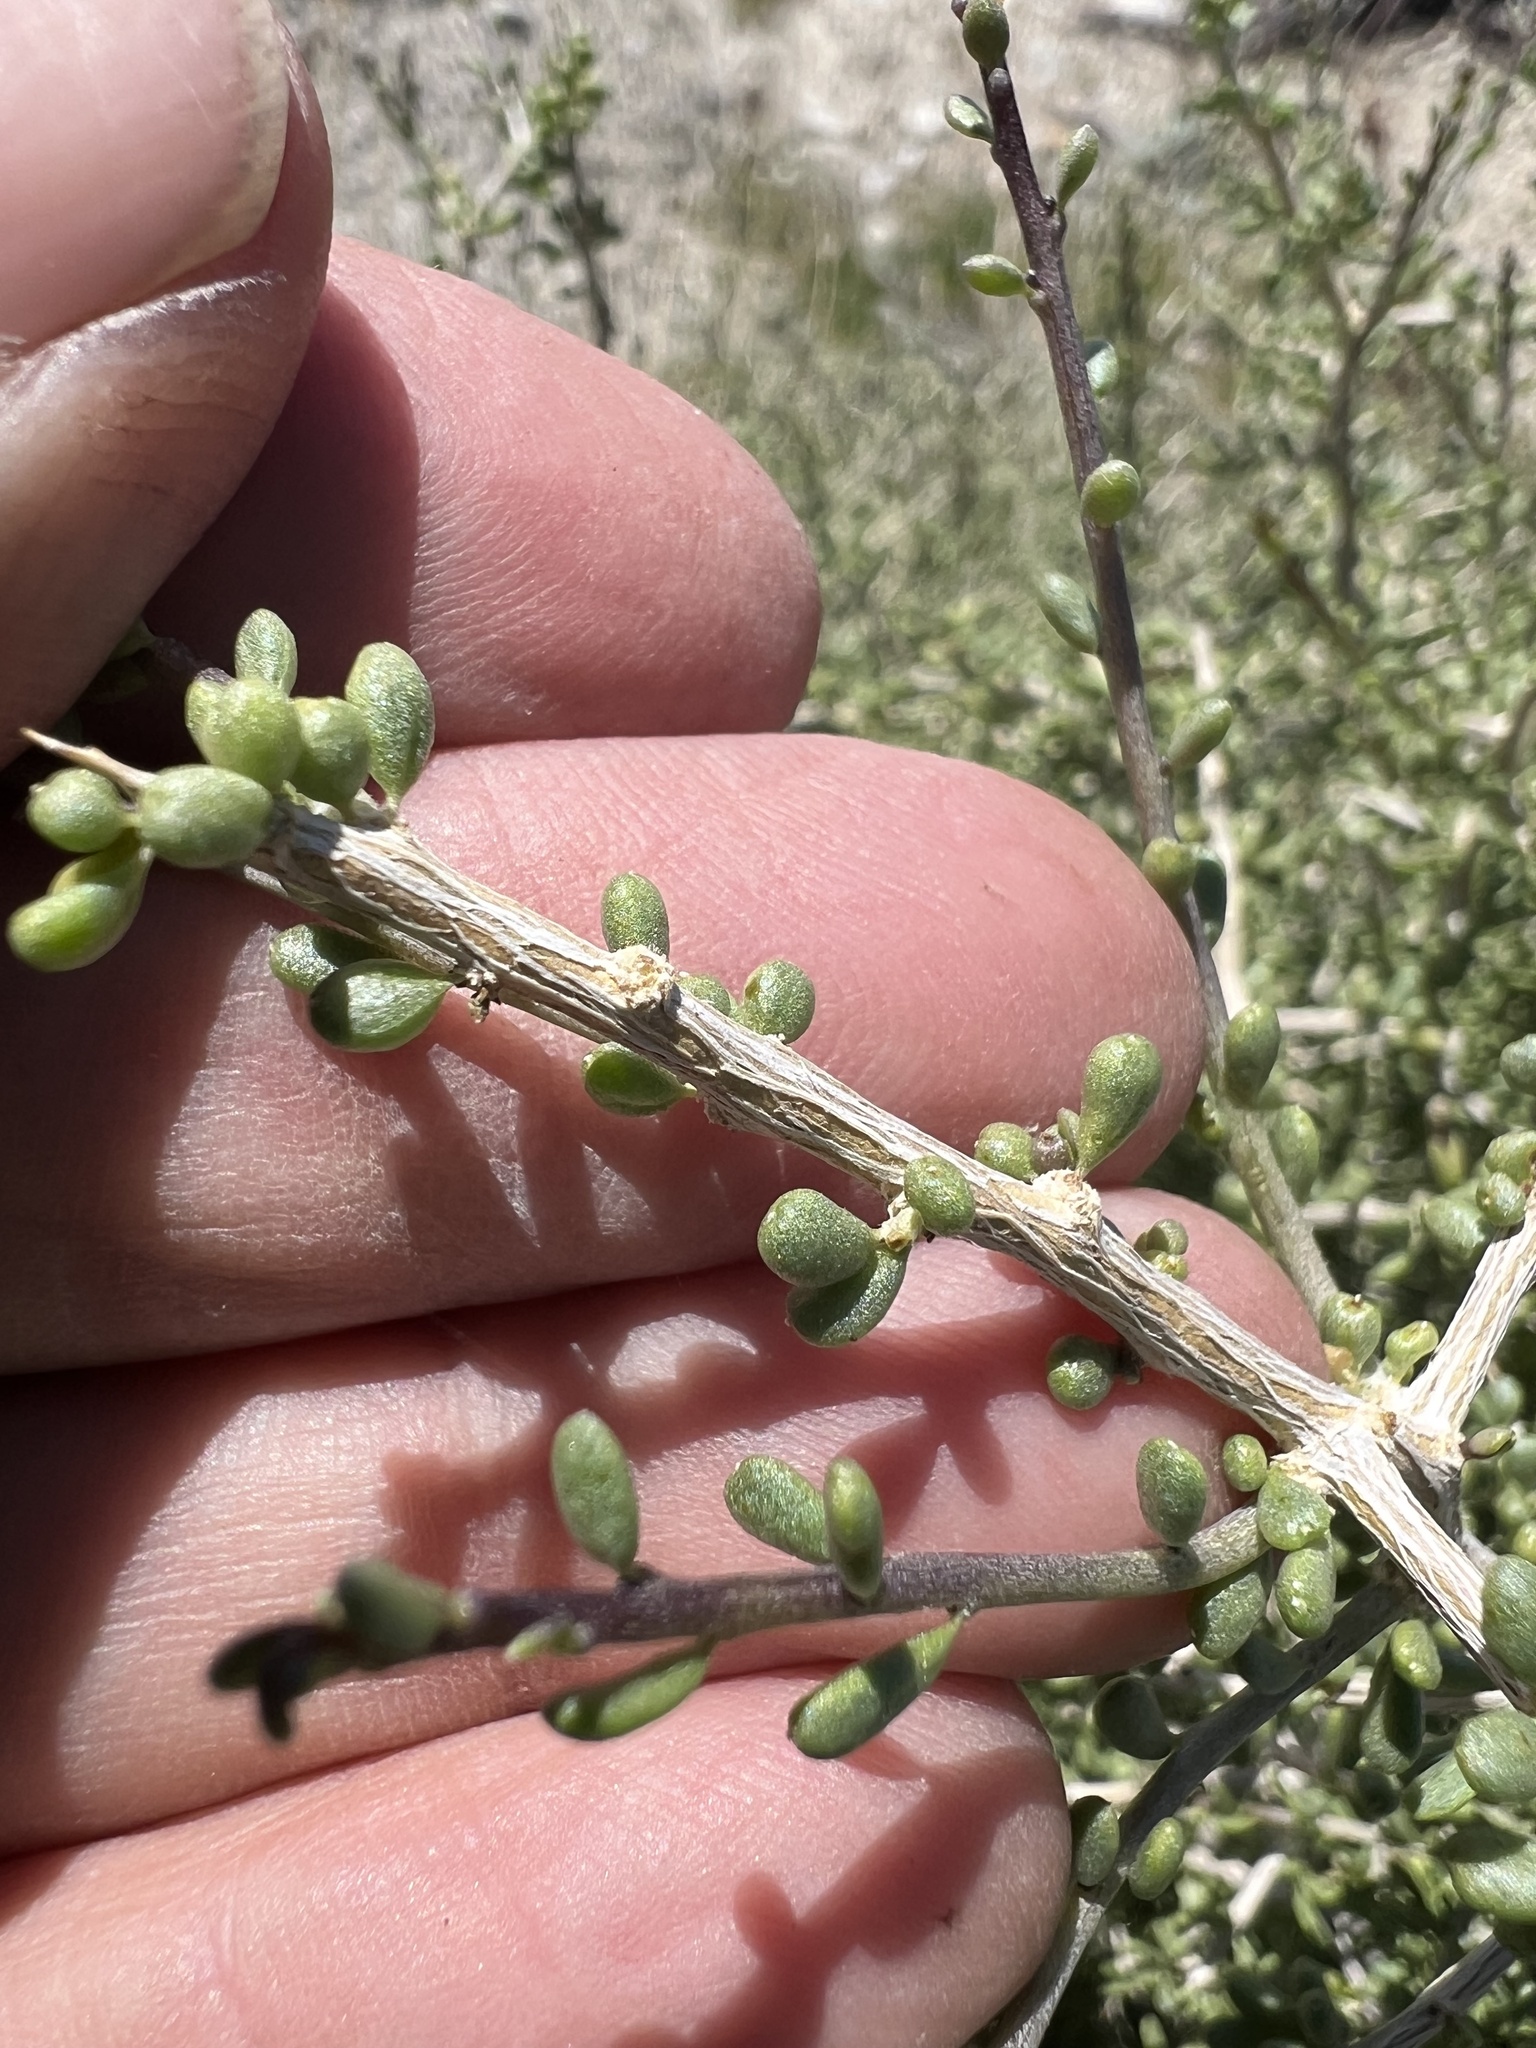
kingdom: Plantae
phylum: Tracheophyta
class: Magnoliopsida
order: Solanales
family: Solanaceae
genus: Lycium
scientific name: Lycium andersonii
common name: Water-jacket
